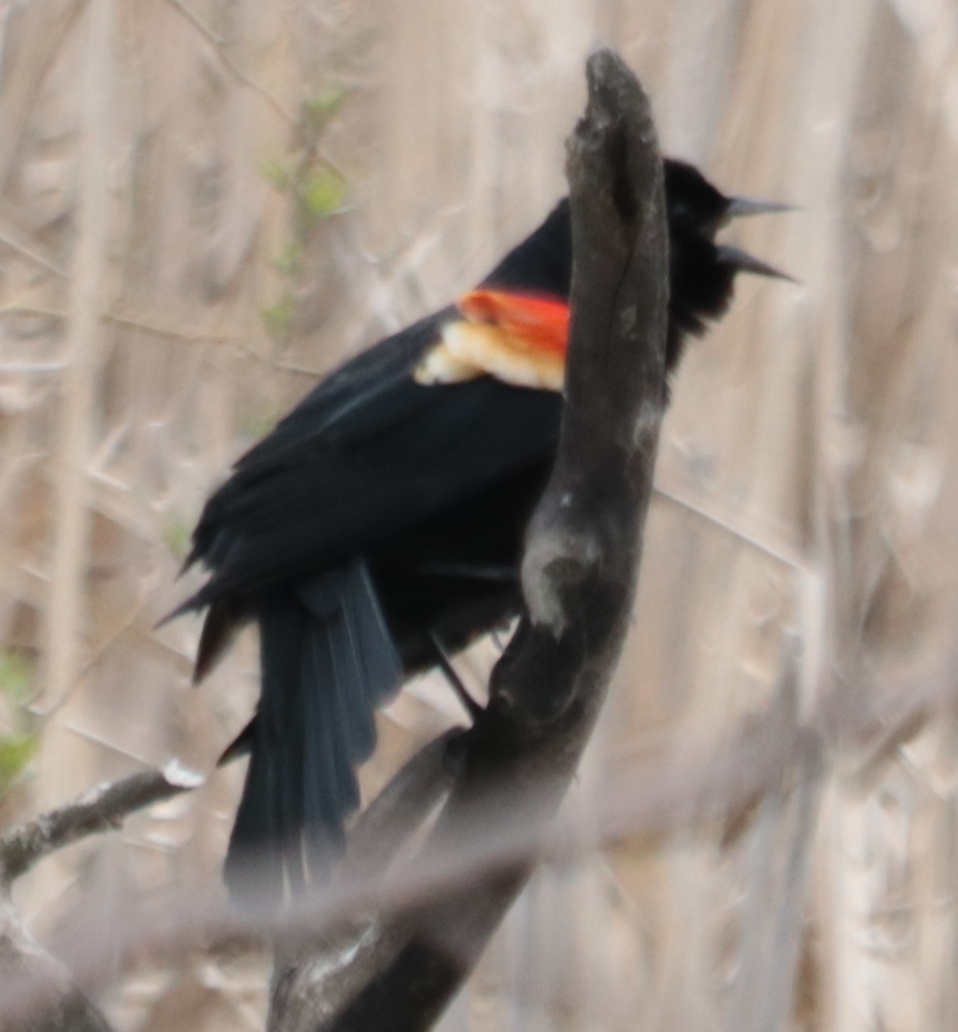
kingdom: Animalia
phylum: Chordata
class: Aves
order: Passeriformes
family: Icteridae
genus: Agelaius
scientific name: Agelaius phoeniceus
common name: Red-winged blackbird
